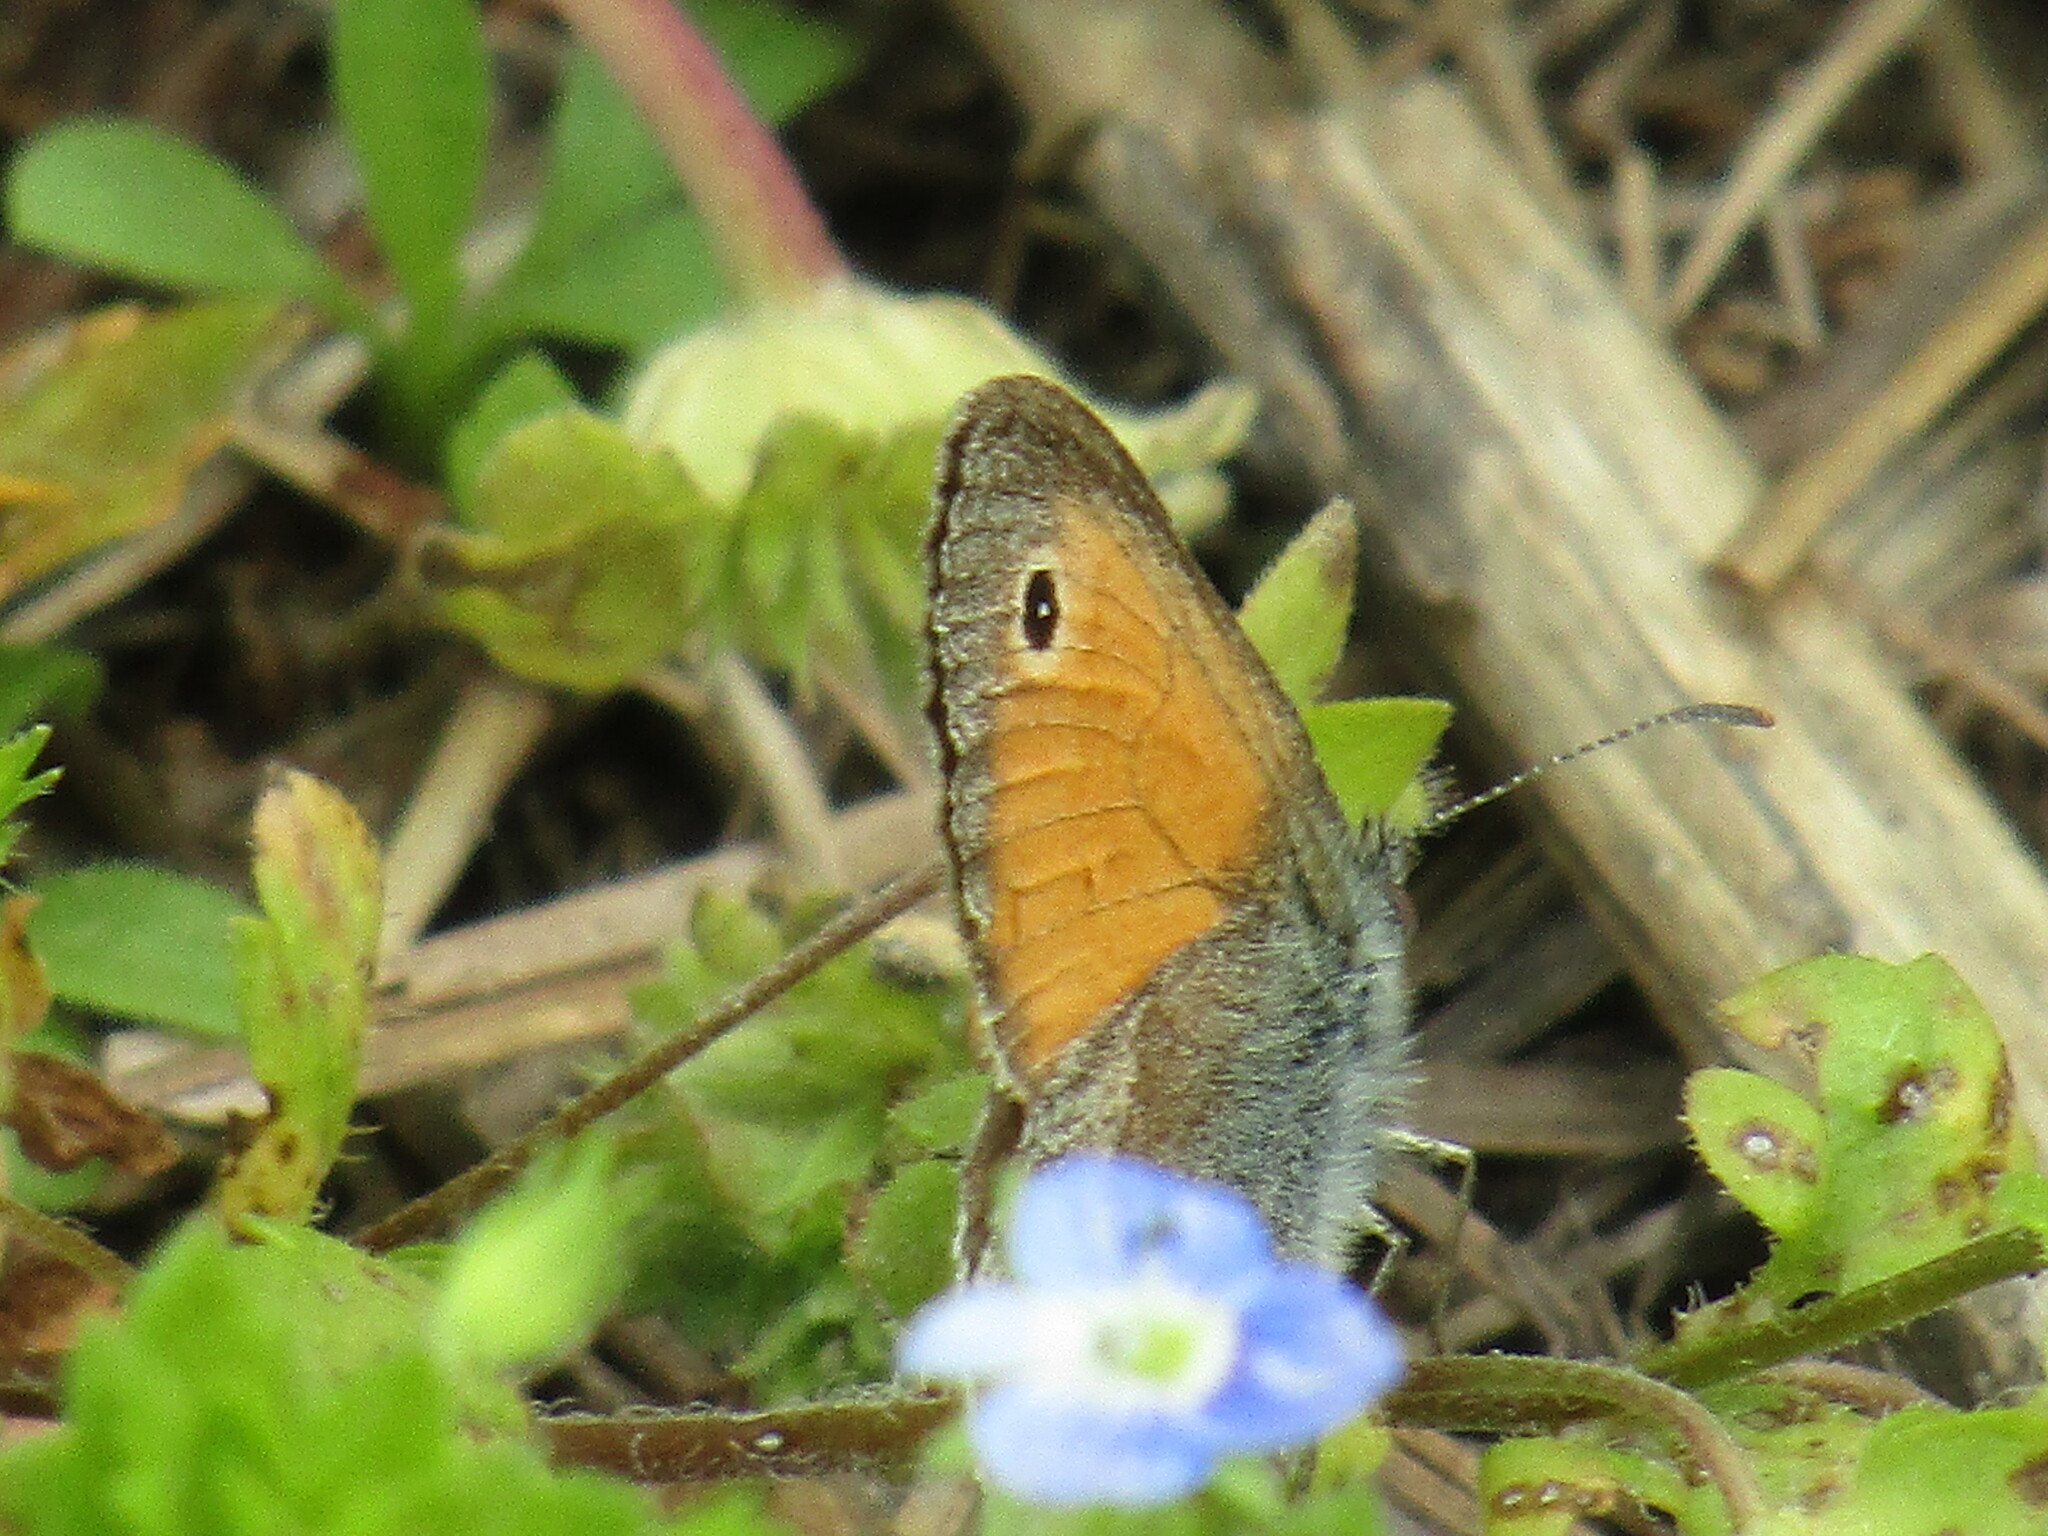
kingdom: Animalia
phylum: Arthropoda
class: Insecta
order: Lepidoptera
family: Nymphalidae
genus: Coenonympha
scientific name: Coenonympha pamphilus
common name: Small heath
